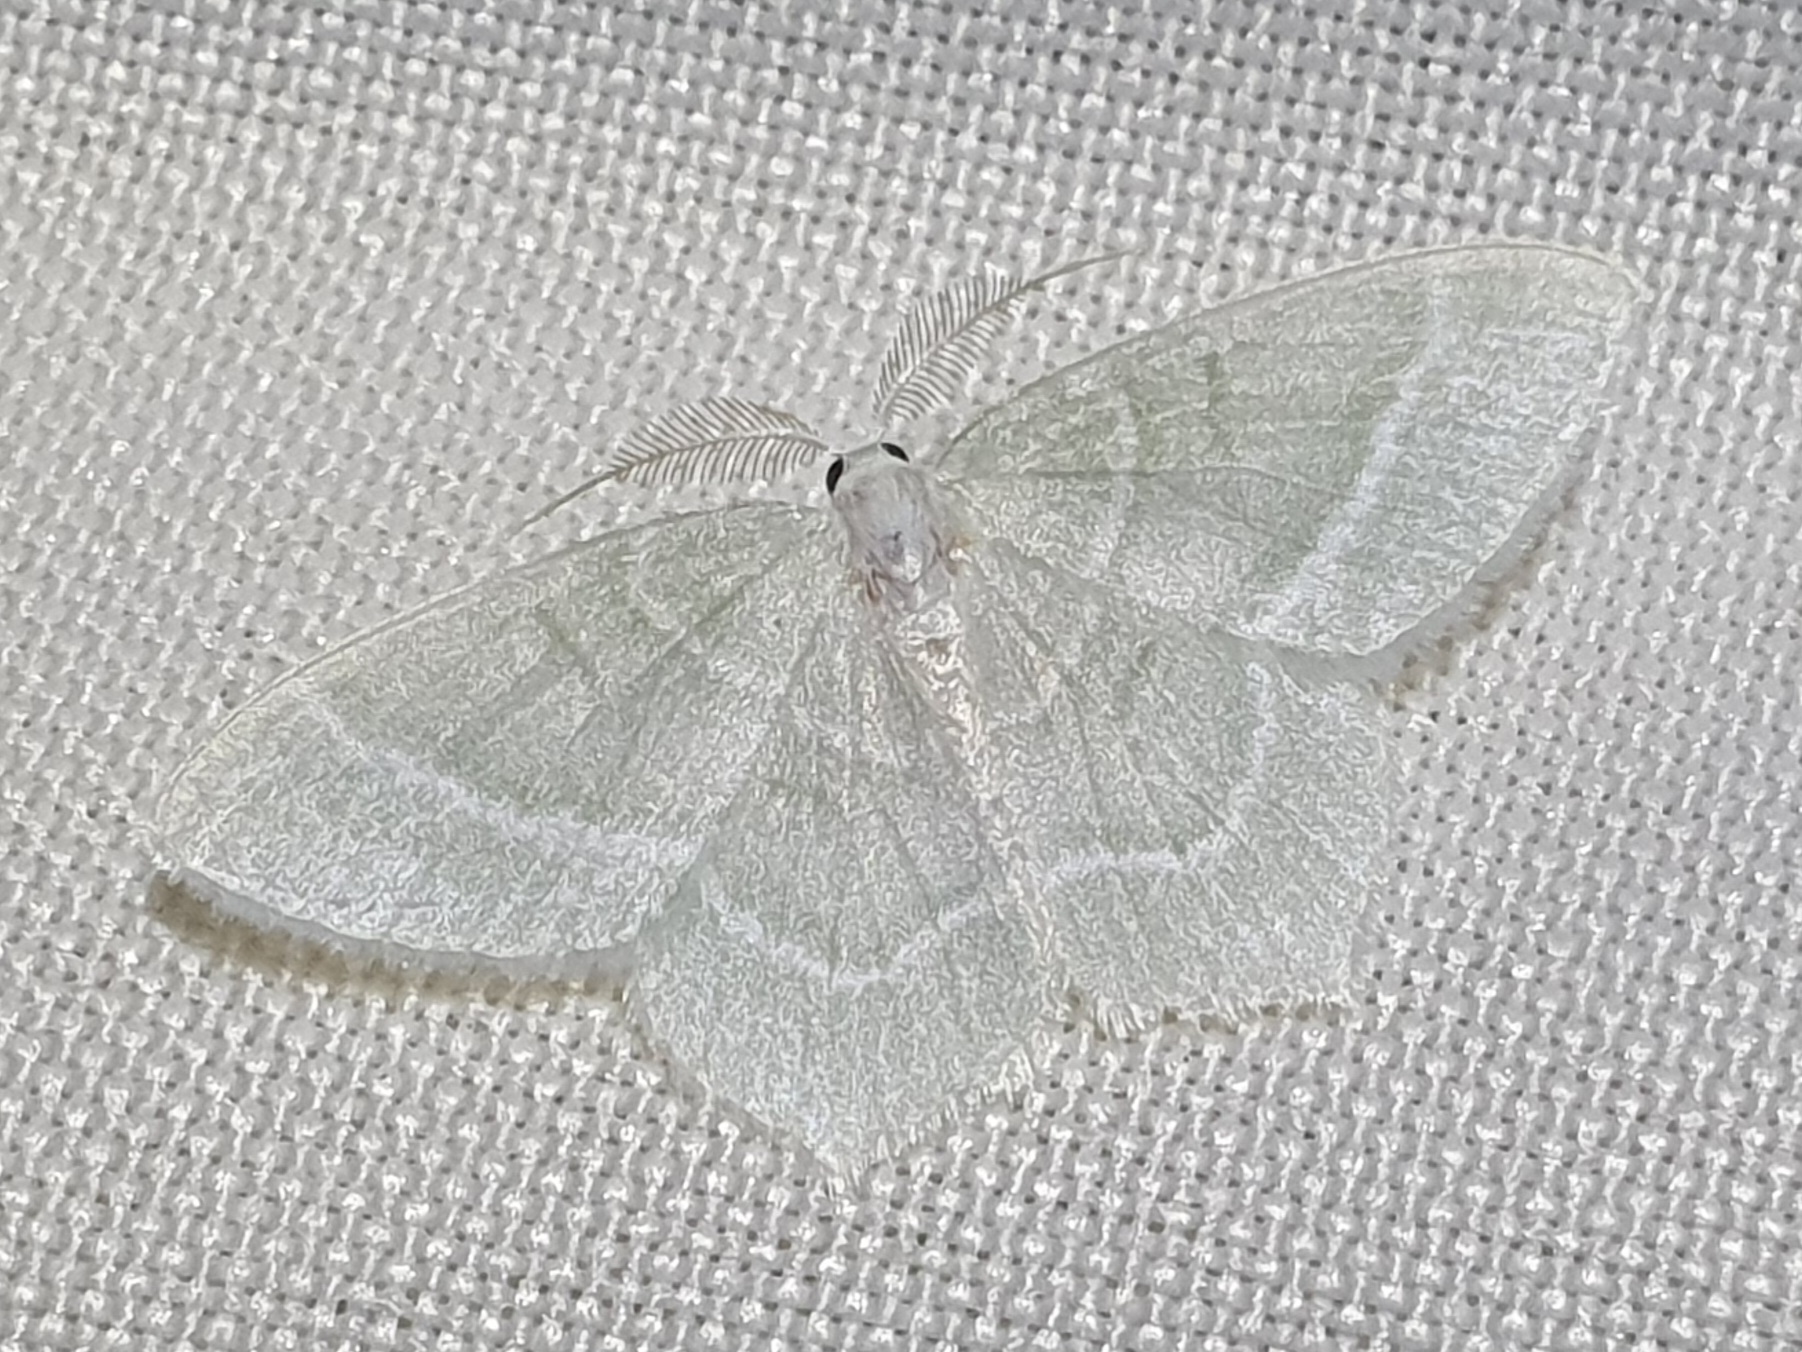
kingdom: Animalia
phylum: Arthropoda
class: Insecta
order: Lepidoptera
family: Geometridae
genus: Jodis
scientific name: Jodis lactearia
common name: Little emerald
